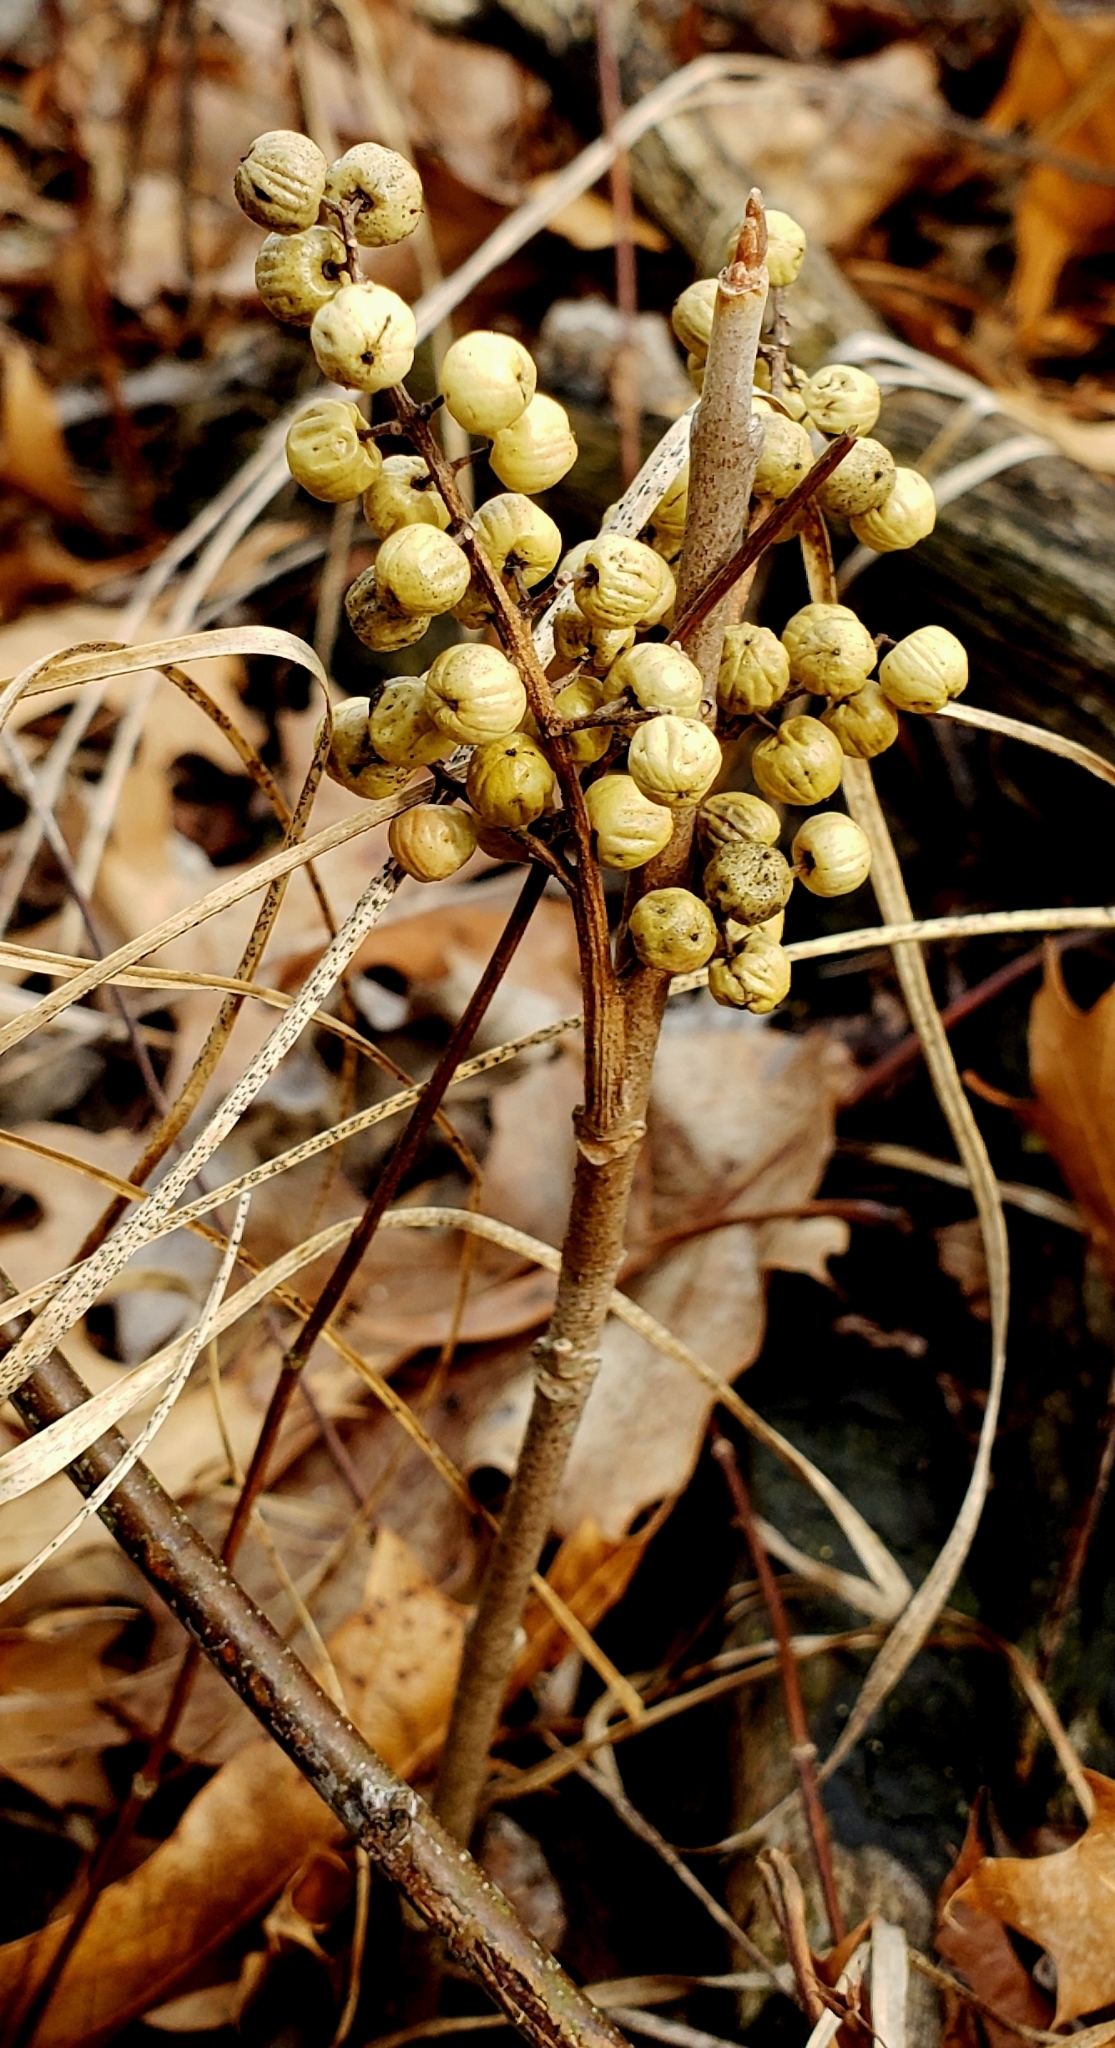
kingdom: Plantae
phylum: Tracheophyta
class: Magnoliopsida
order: Sapindales
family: Anacardiaceae
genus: Toxicodendron
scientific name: Toxicodendron rydbergii
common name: Rydberg's poison-ivy
